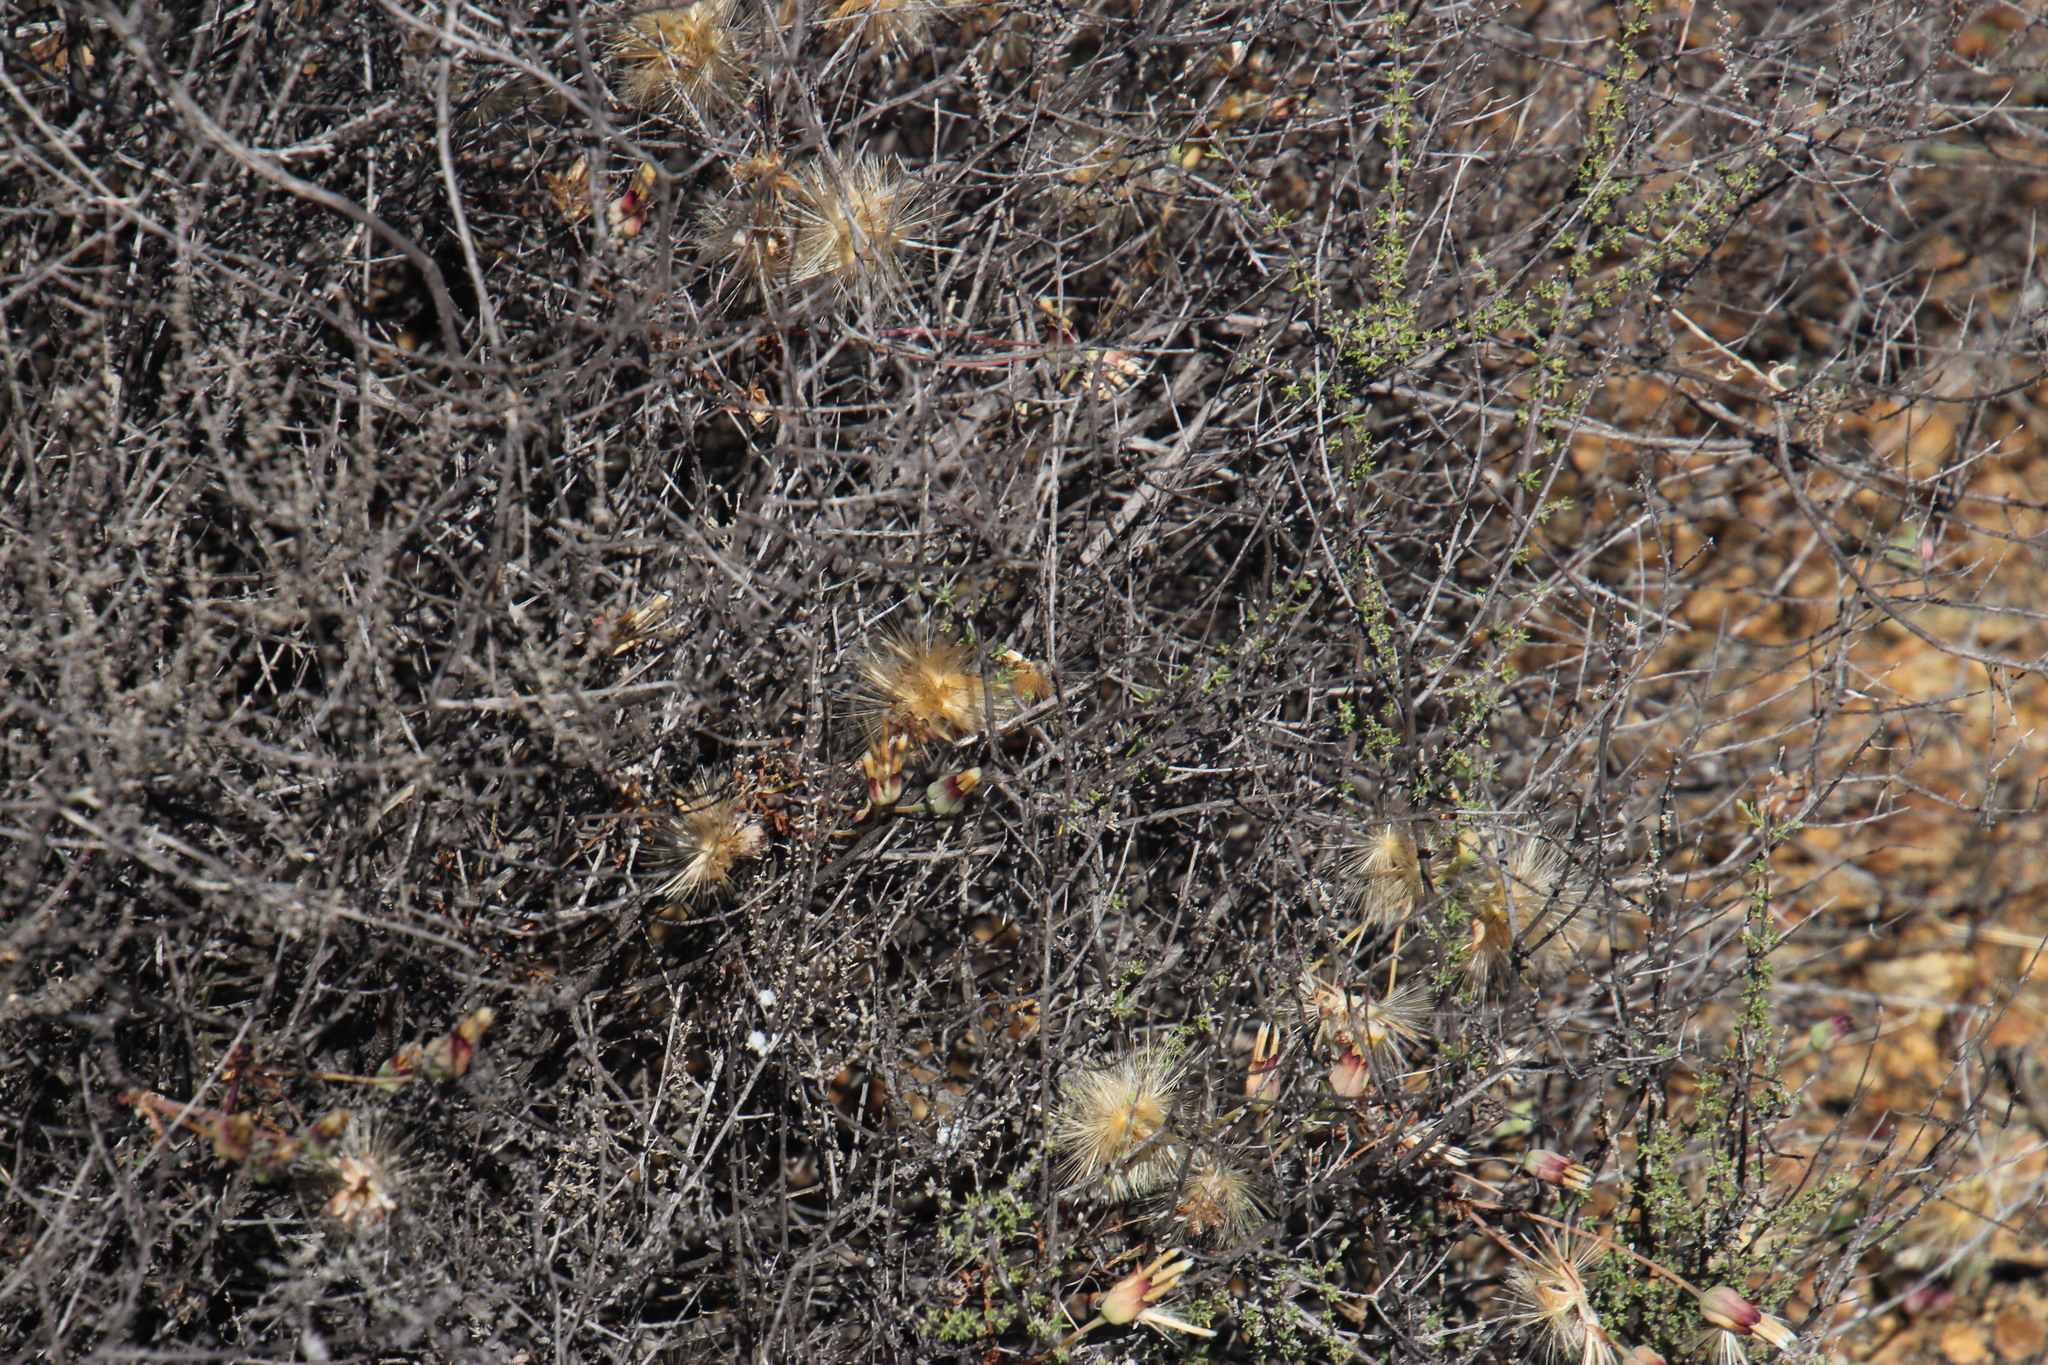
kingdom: Plantae
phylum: Tracheophyta
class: Magnoliopsida
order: Asterales
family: Asteraceae
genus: Othonna
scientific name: Othonna retrofracta
